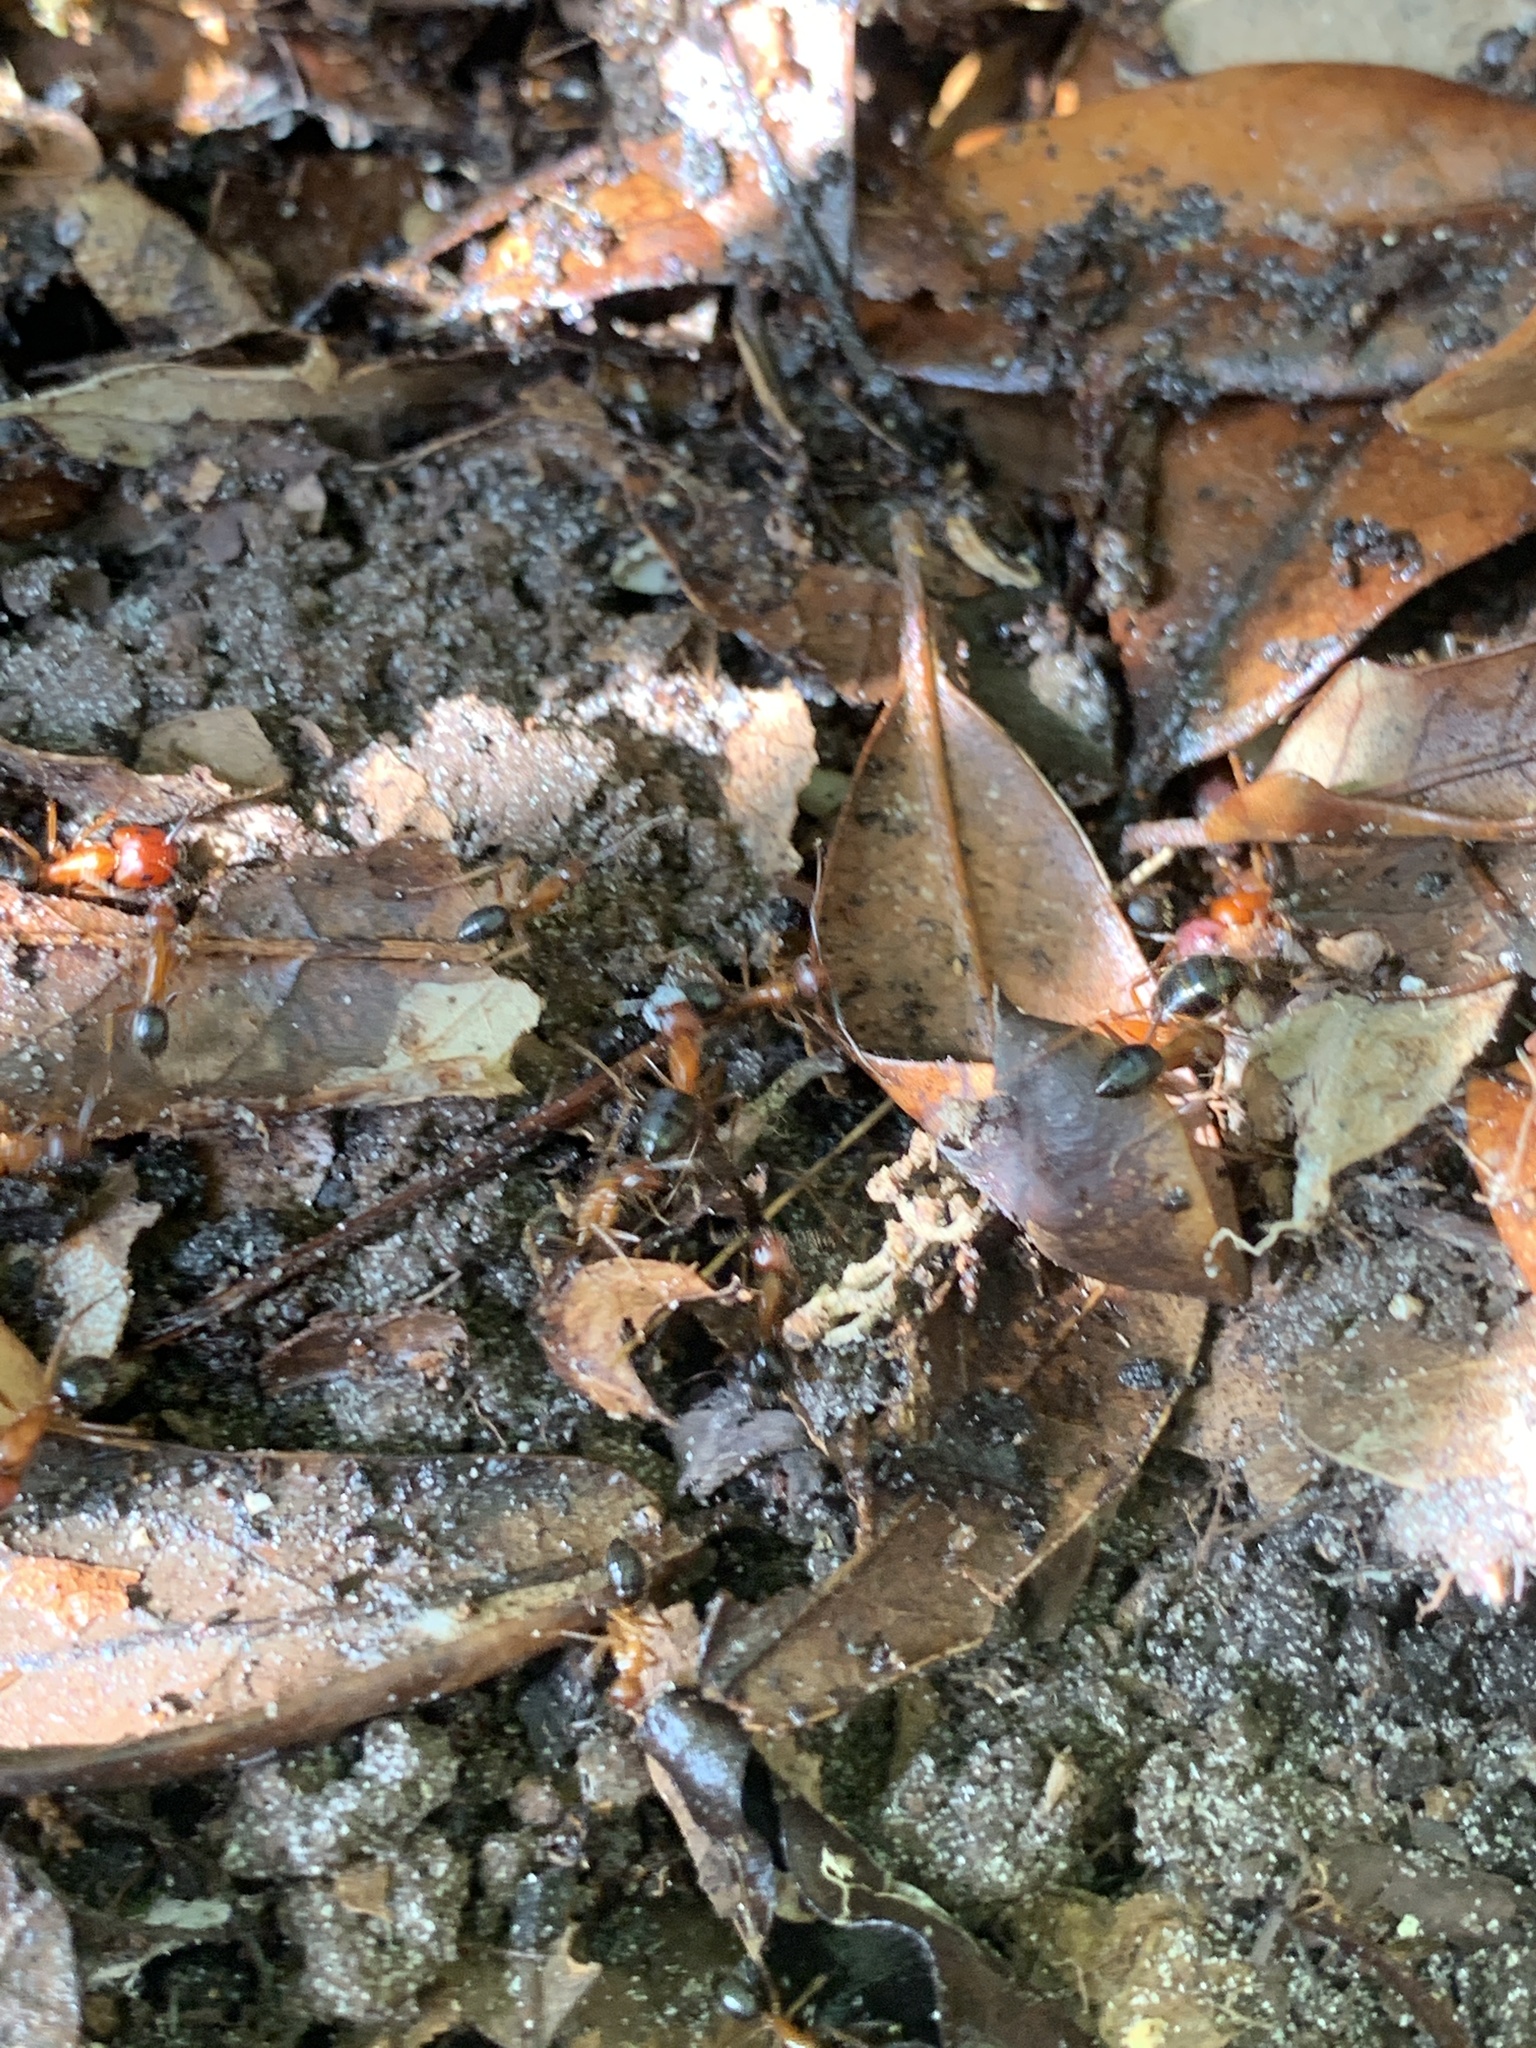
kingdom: Animalia
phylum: Arthropoda
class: Insecta
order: Hymenoptera
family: Formicidae
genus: Camponotus
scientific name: Camponotus floridanus
